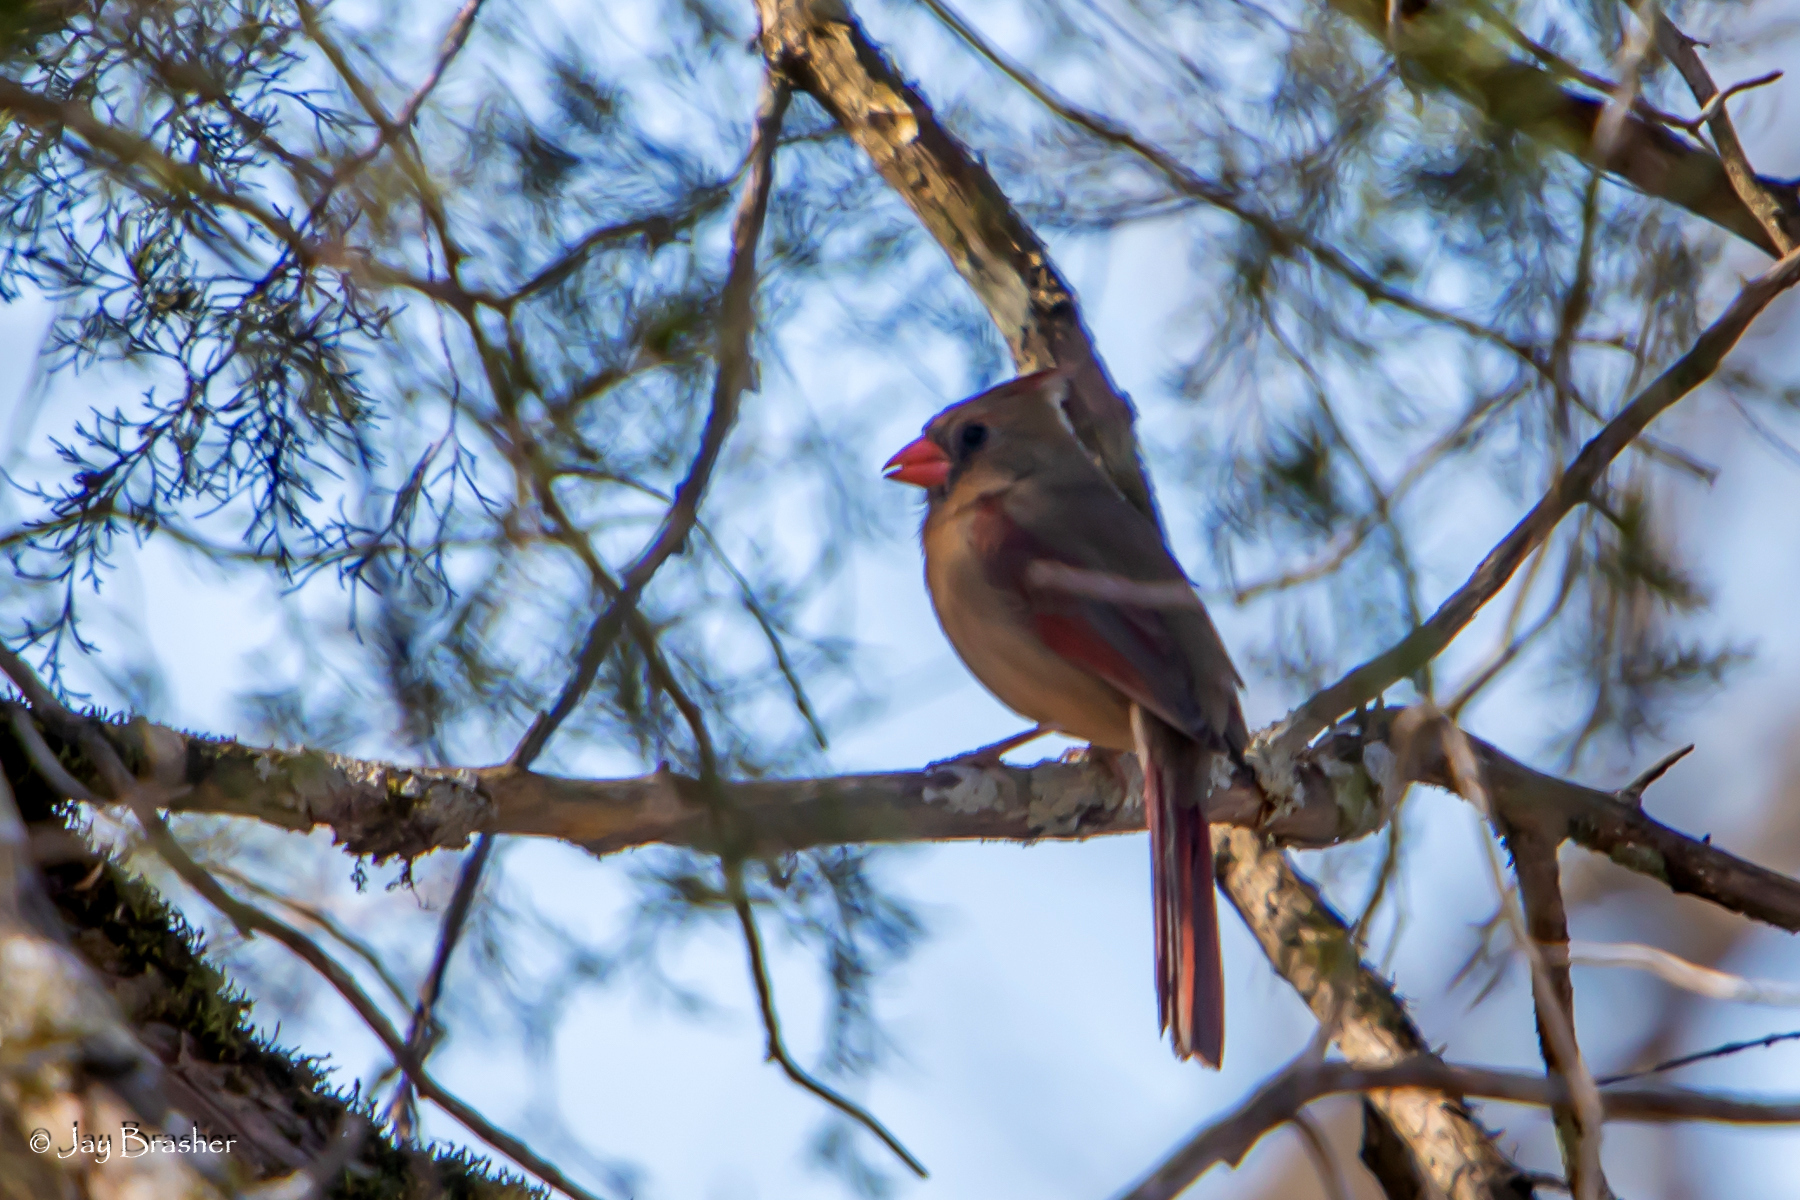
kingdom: Animalia
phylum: Chordata
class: Aves
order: Passeriformes
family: Cardinalidae
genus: Cardinalis
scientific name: Cardinalis cardinalis
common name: Northern cardinal
